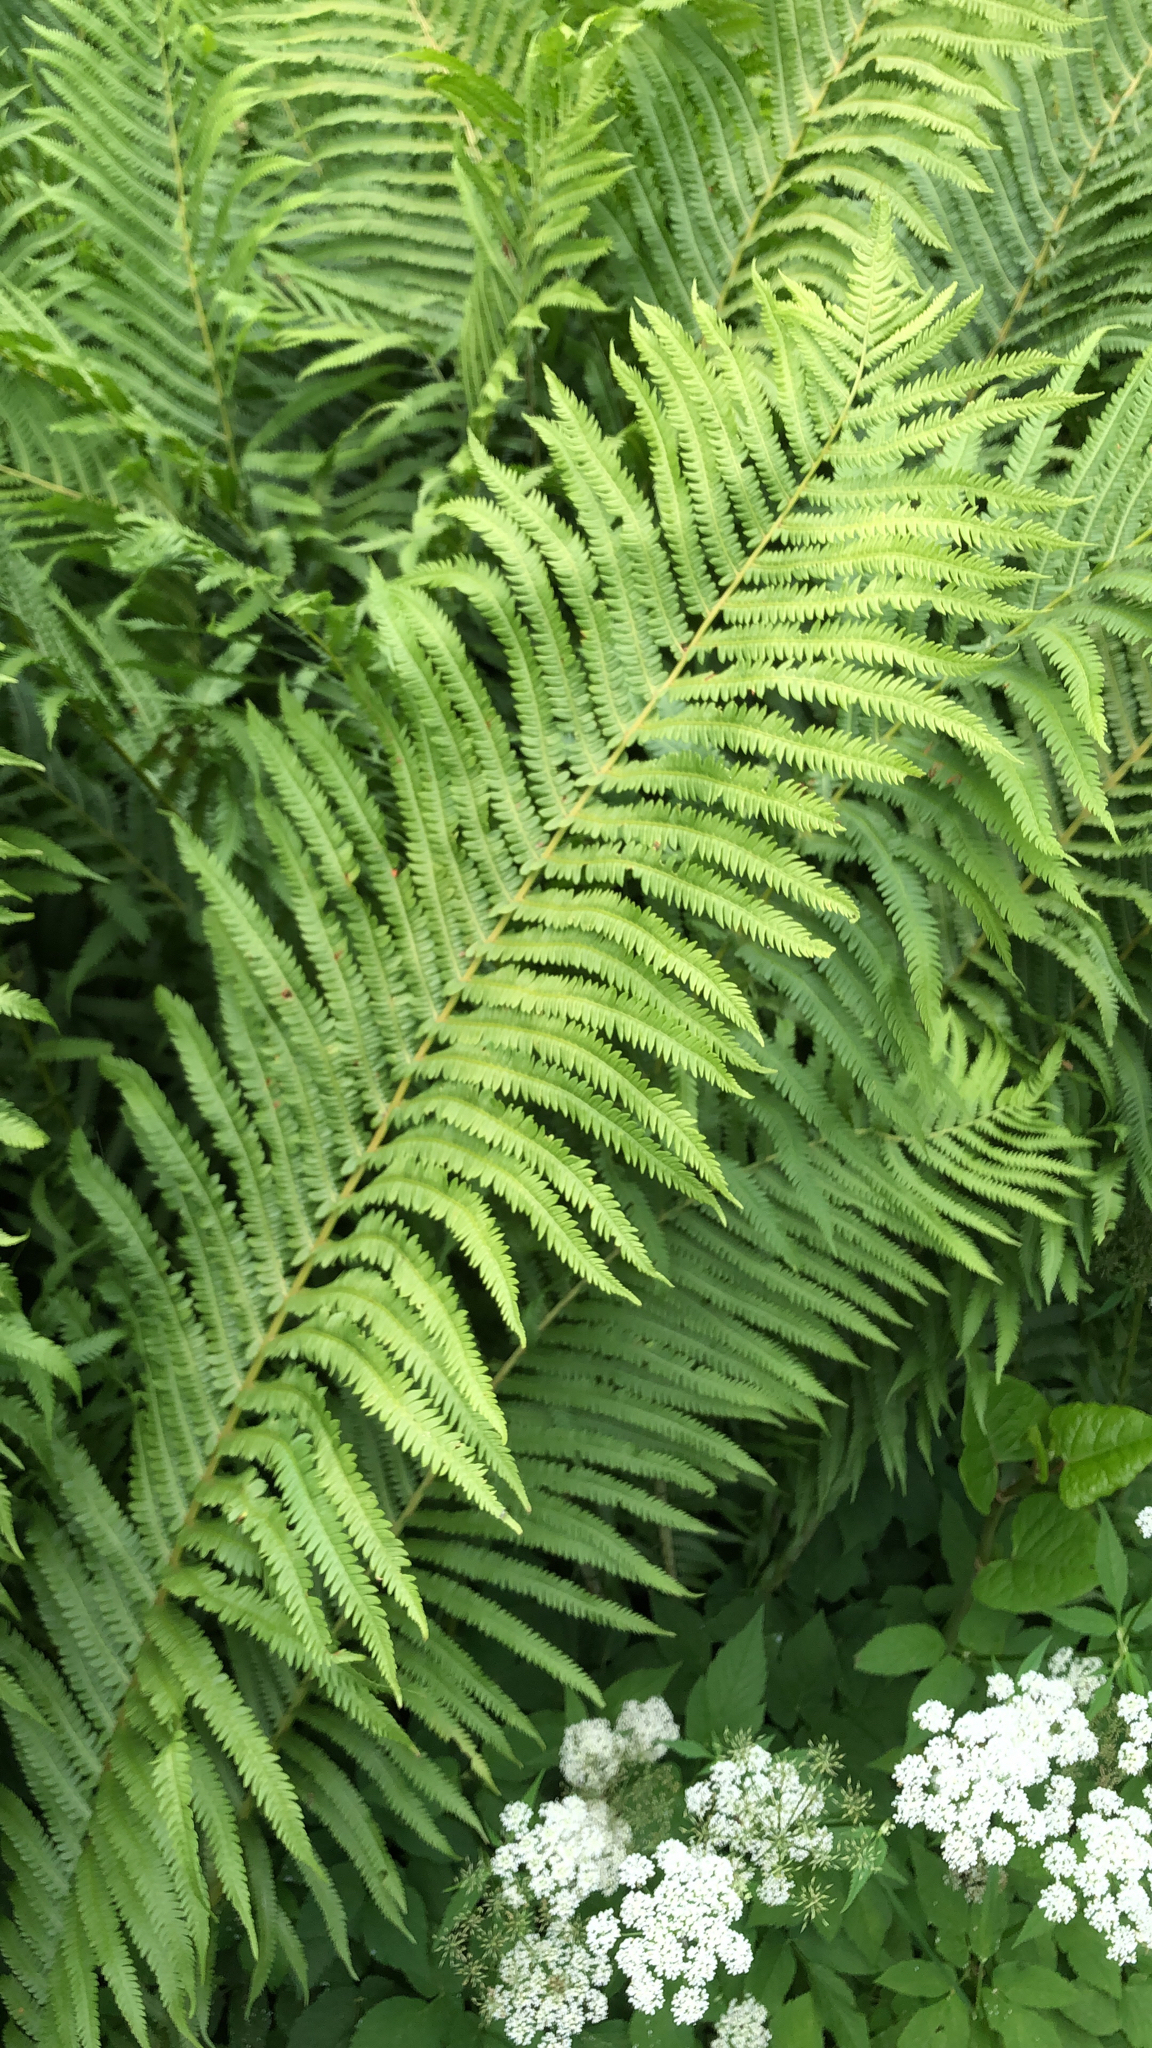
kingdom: Plantae
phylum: Tracheophyta
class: Polypodiopsida
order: Polypodiales
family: Onocleaceae
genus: Matteuccia
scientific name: Matteuccia struthiopteris
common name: Ostrich fern
